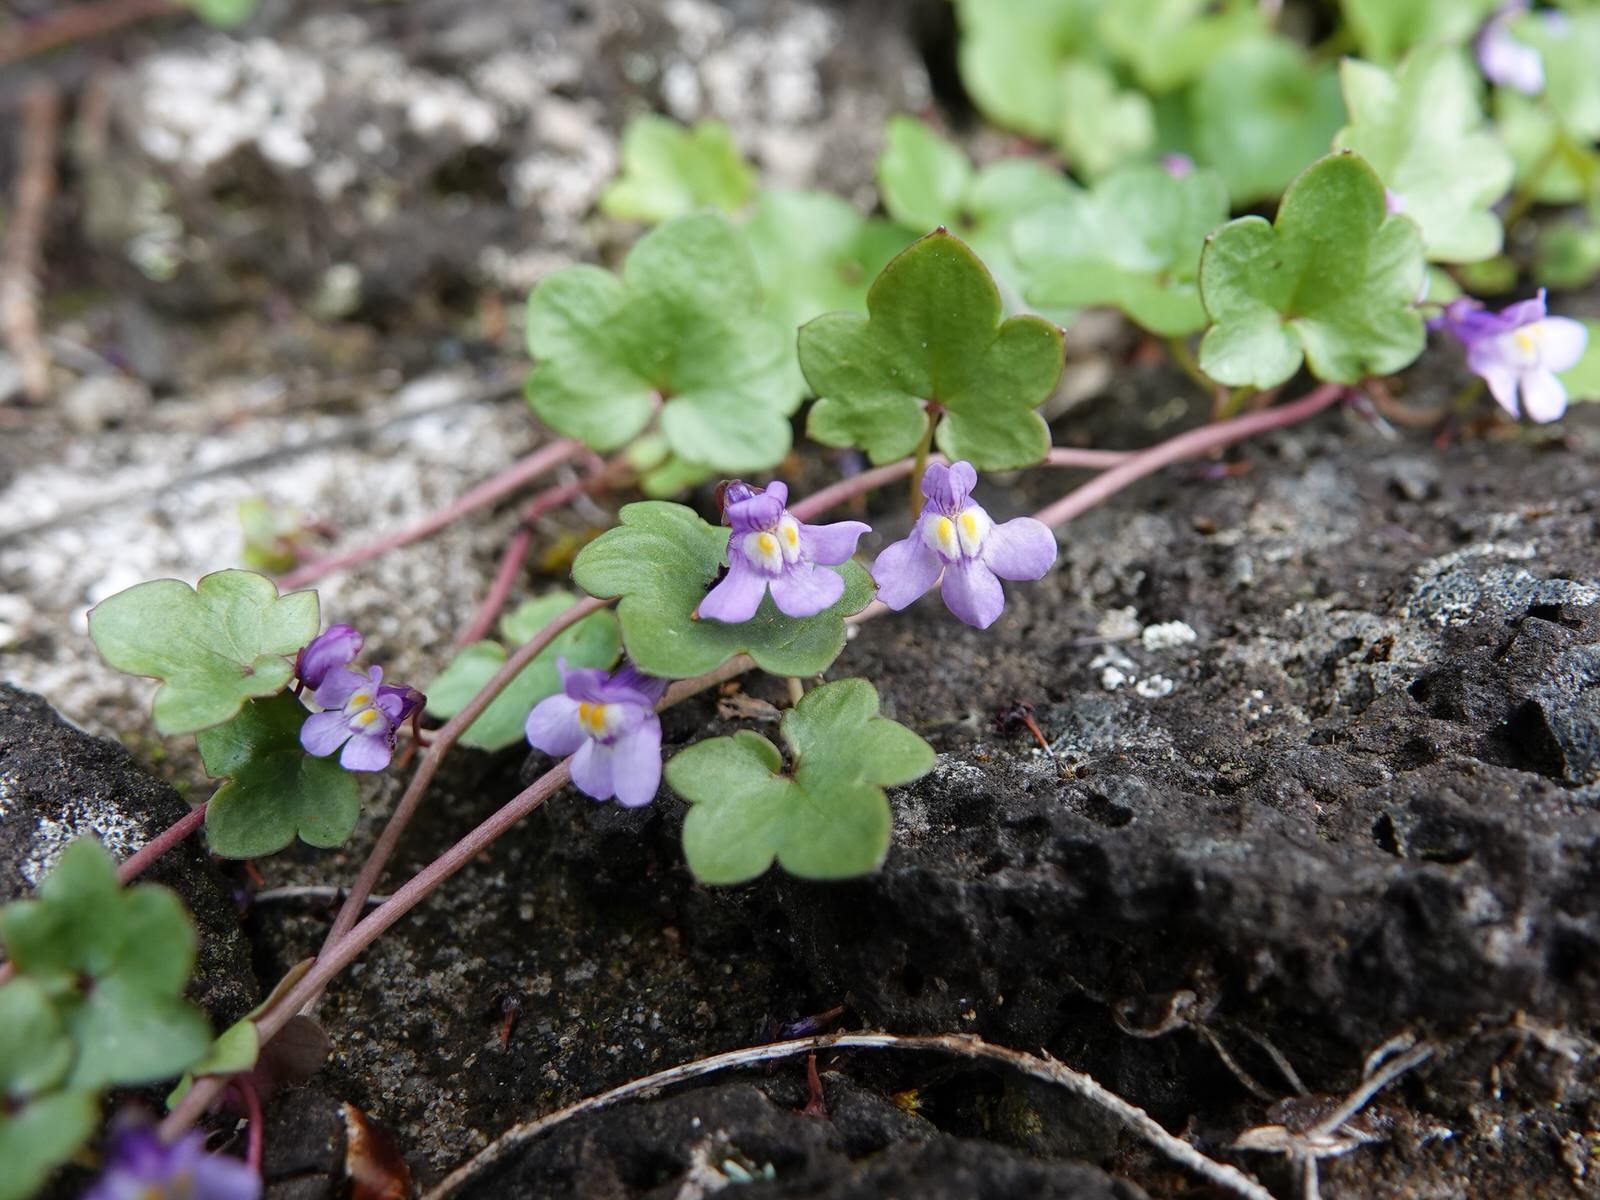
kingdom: Plantae
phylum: Tracheophyta
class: Magnoliopsida
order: Lamiales
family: Plantaginaceae
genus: Cymbalaria
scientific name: Cymbalaria muralis
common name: Ivy-leaved toadflax
